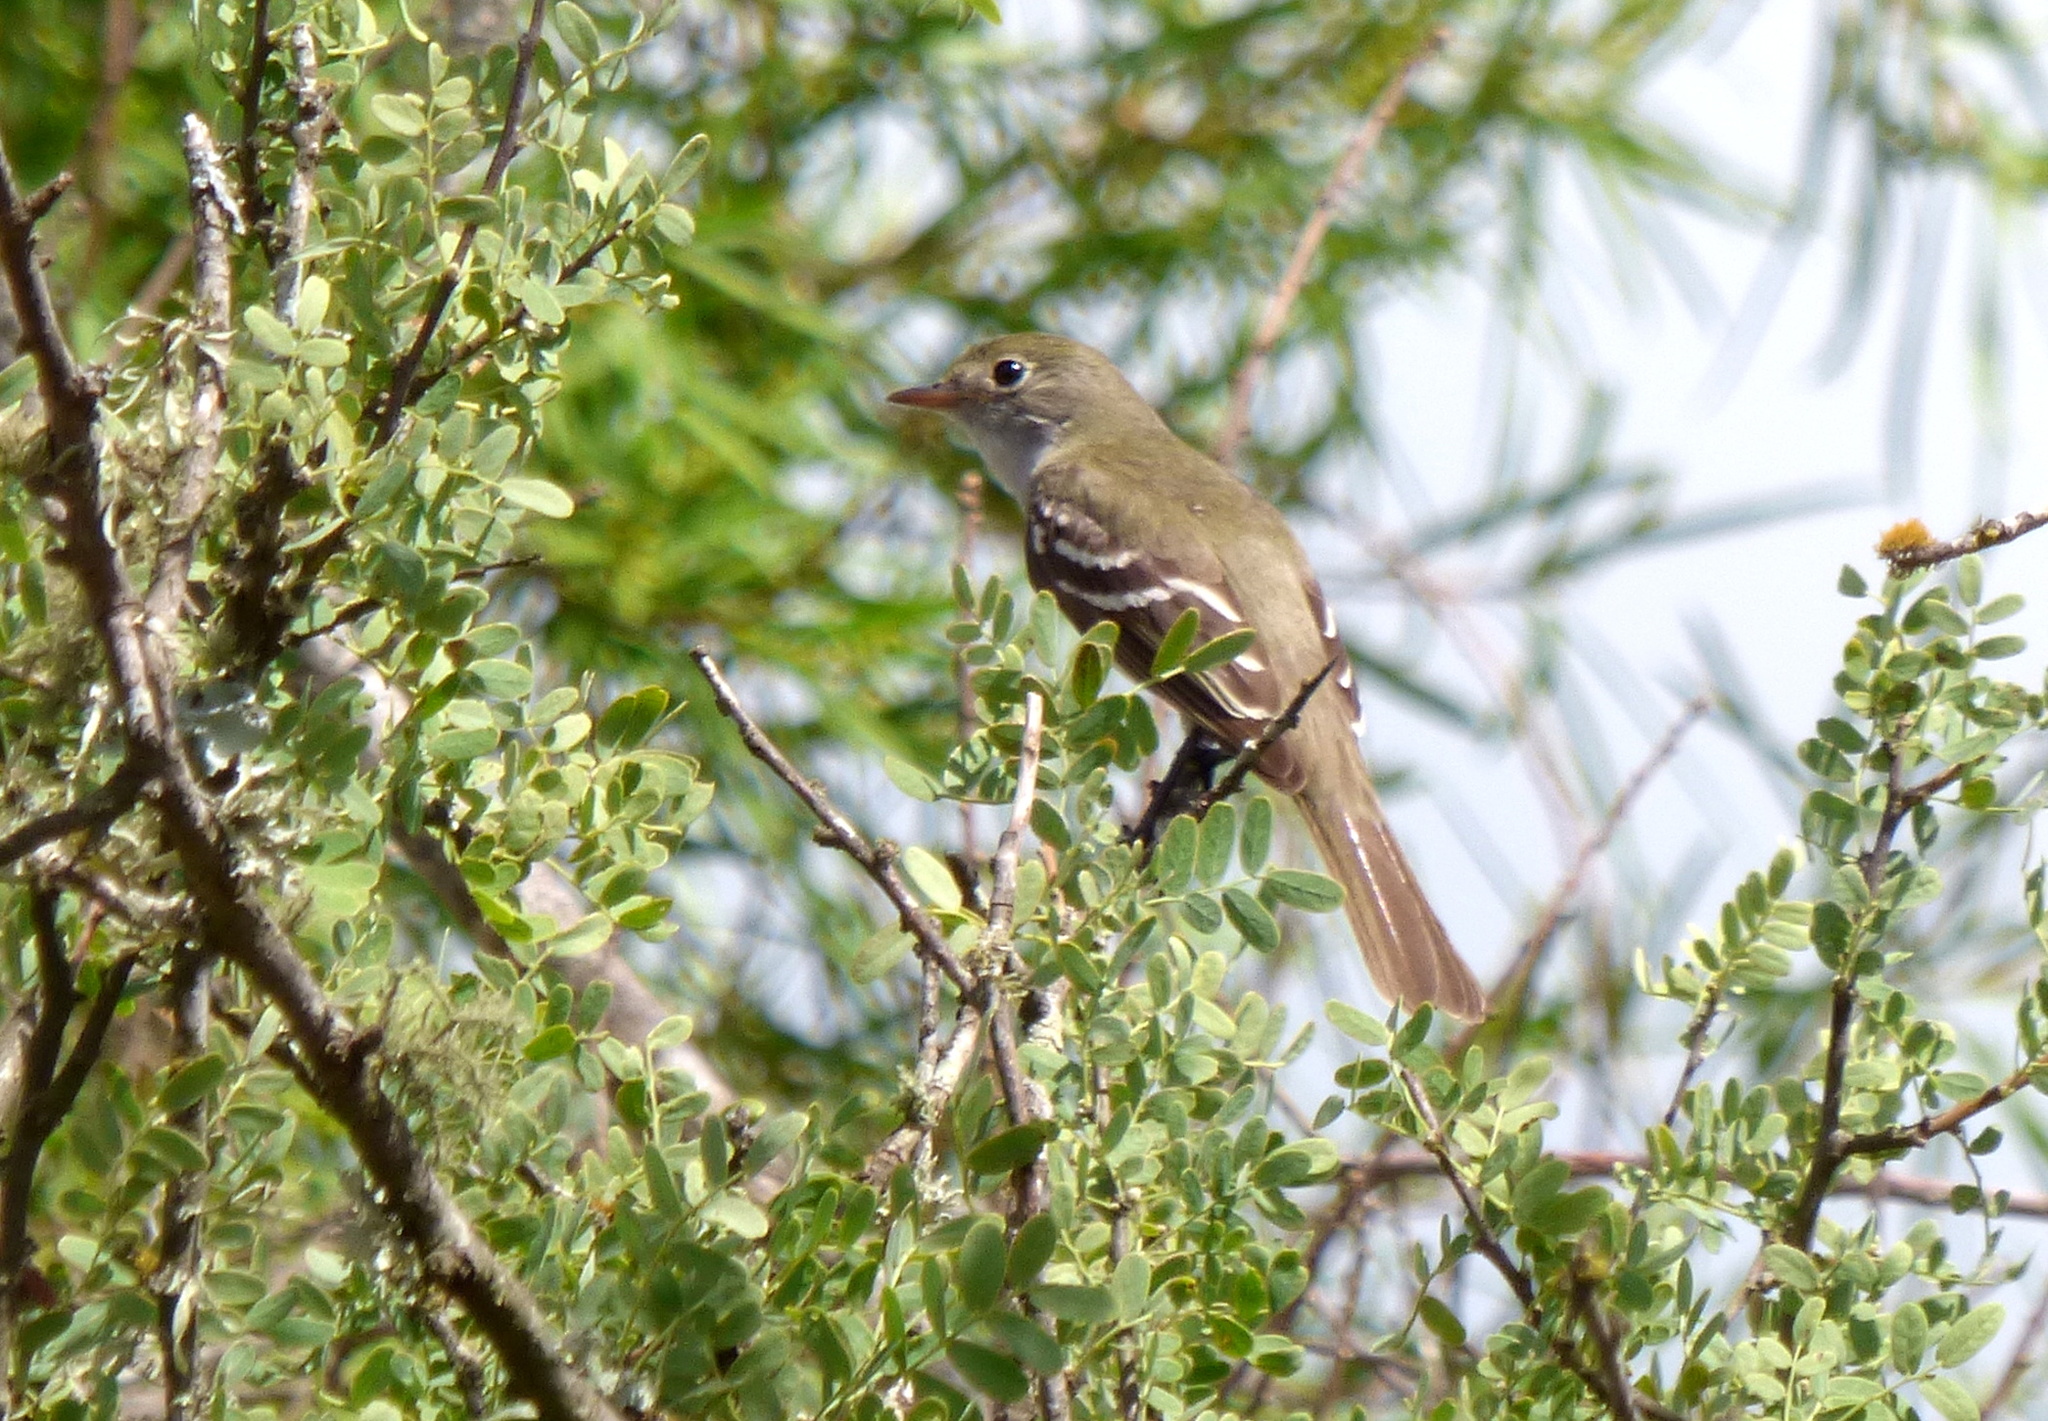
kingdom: Animalia
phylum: Chordata
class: Aves
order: Passeriformes
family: Tyrannidae
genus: Elaenia
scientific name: Elaenia parvirostris
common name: Small-billed elaenia
